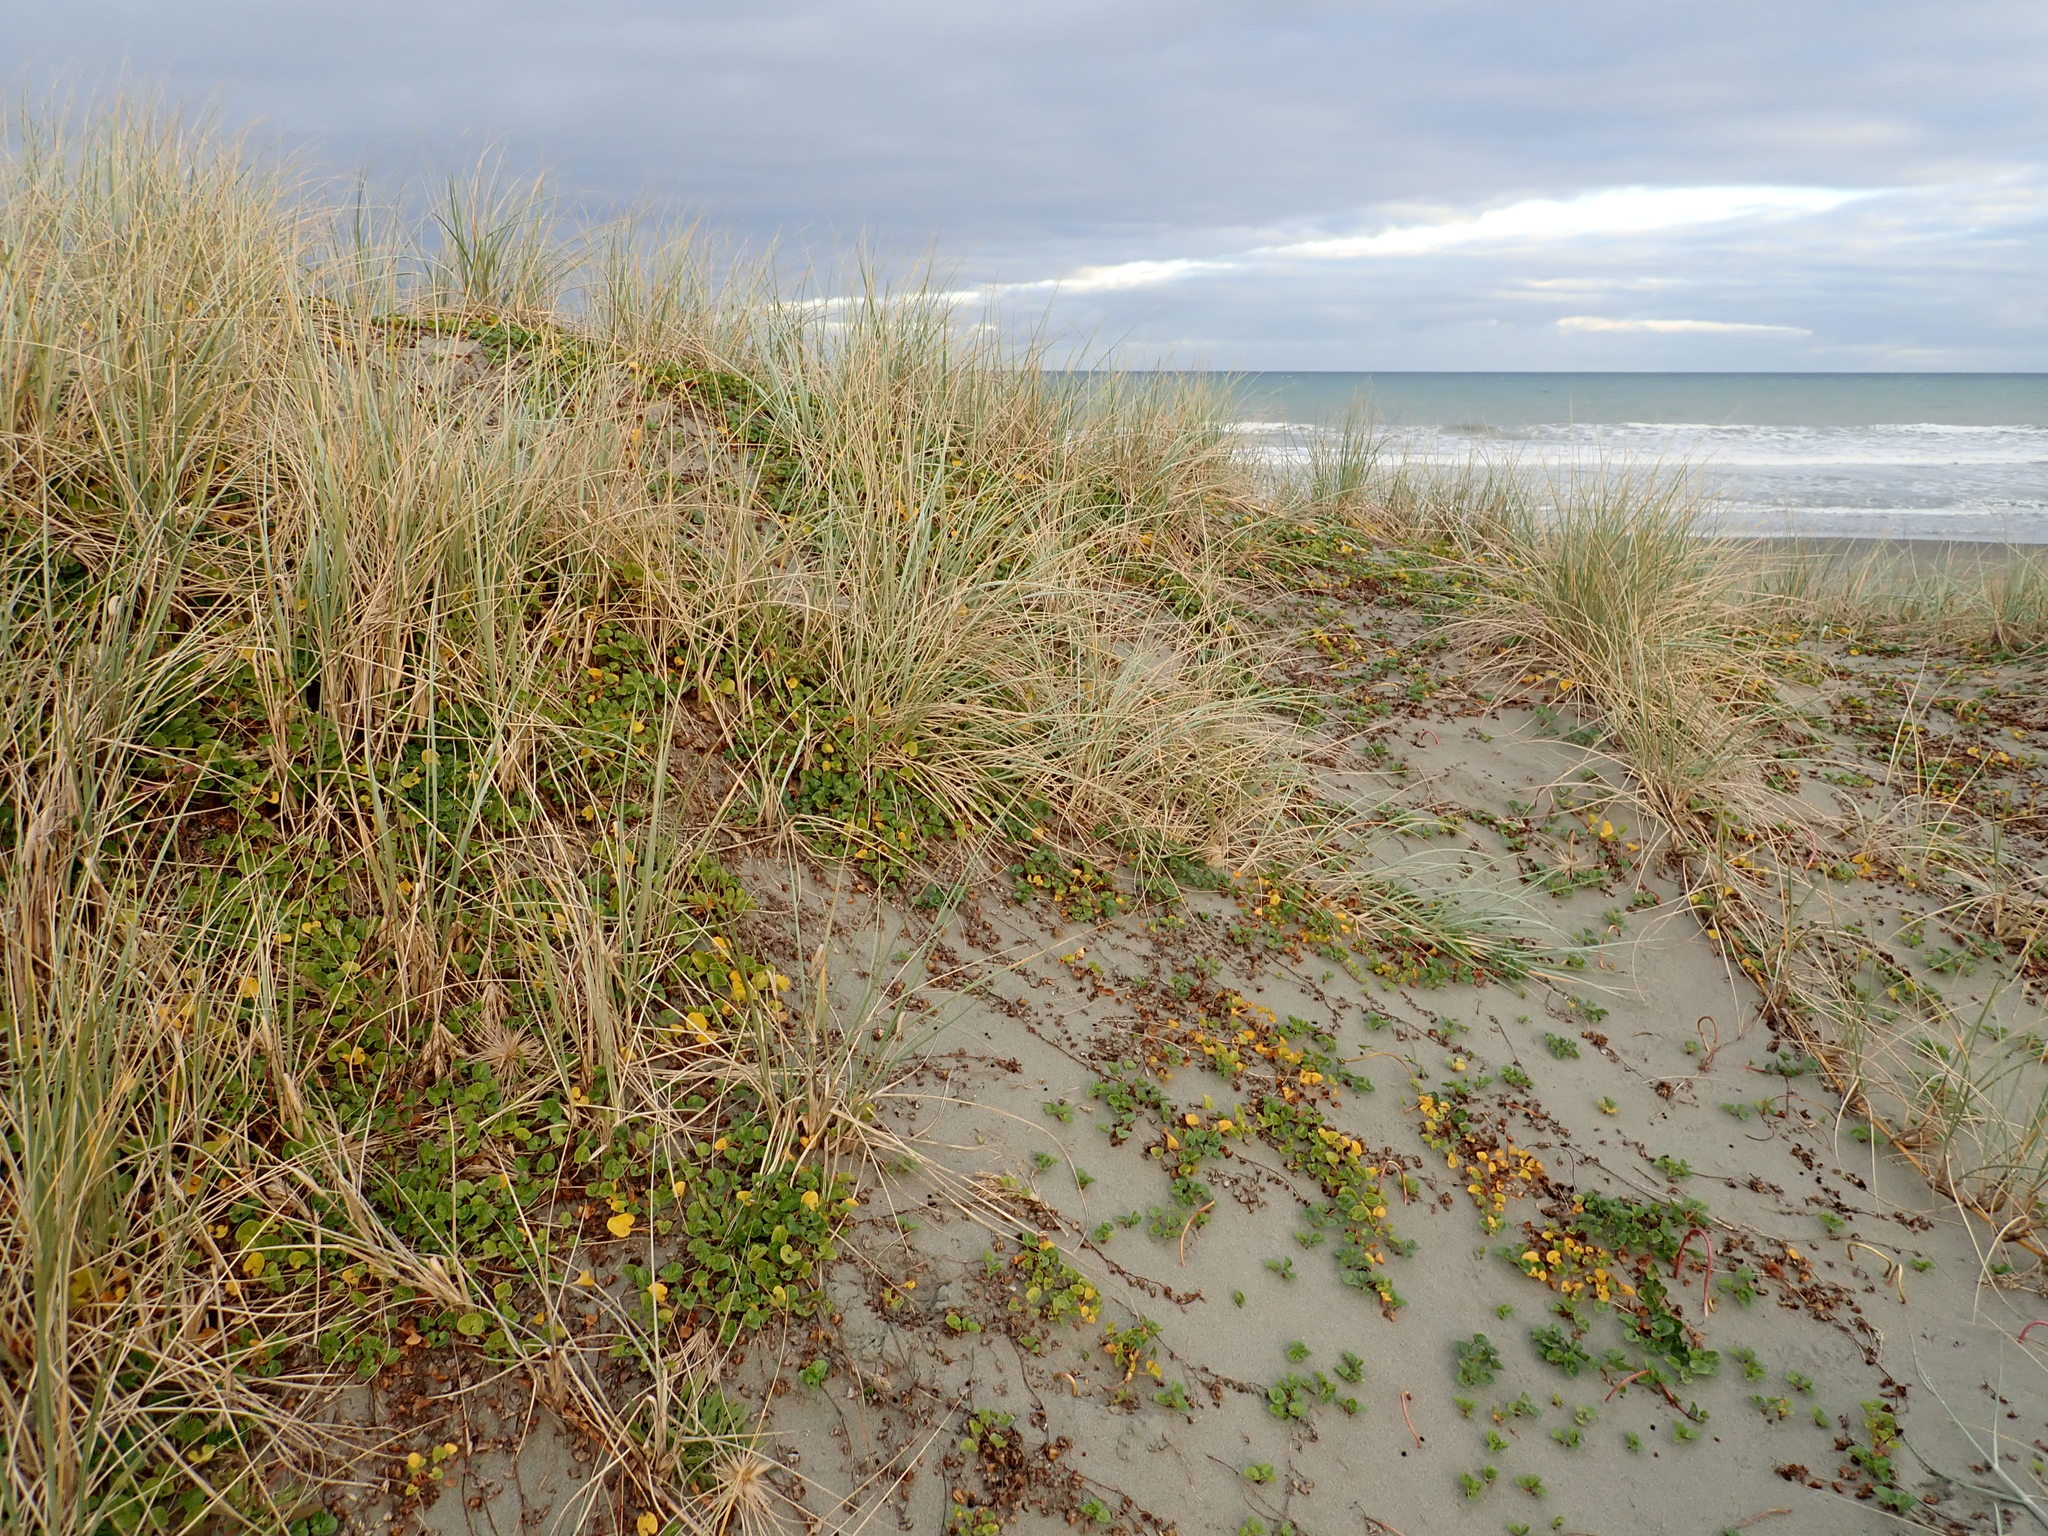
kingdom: Plantae
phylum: Tracheophyta
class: Magnoliopsida
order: Solanales
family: Convolvulaceae
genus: Calystegia
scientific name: Calystegia soldanella
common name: Sea bindweed
